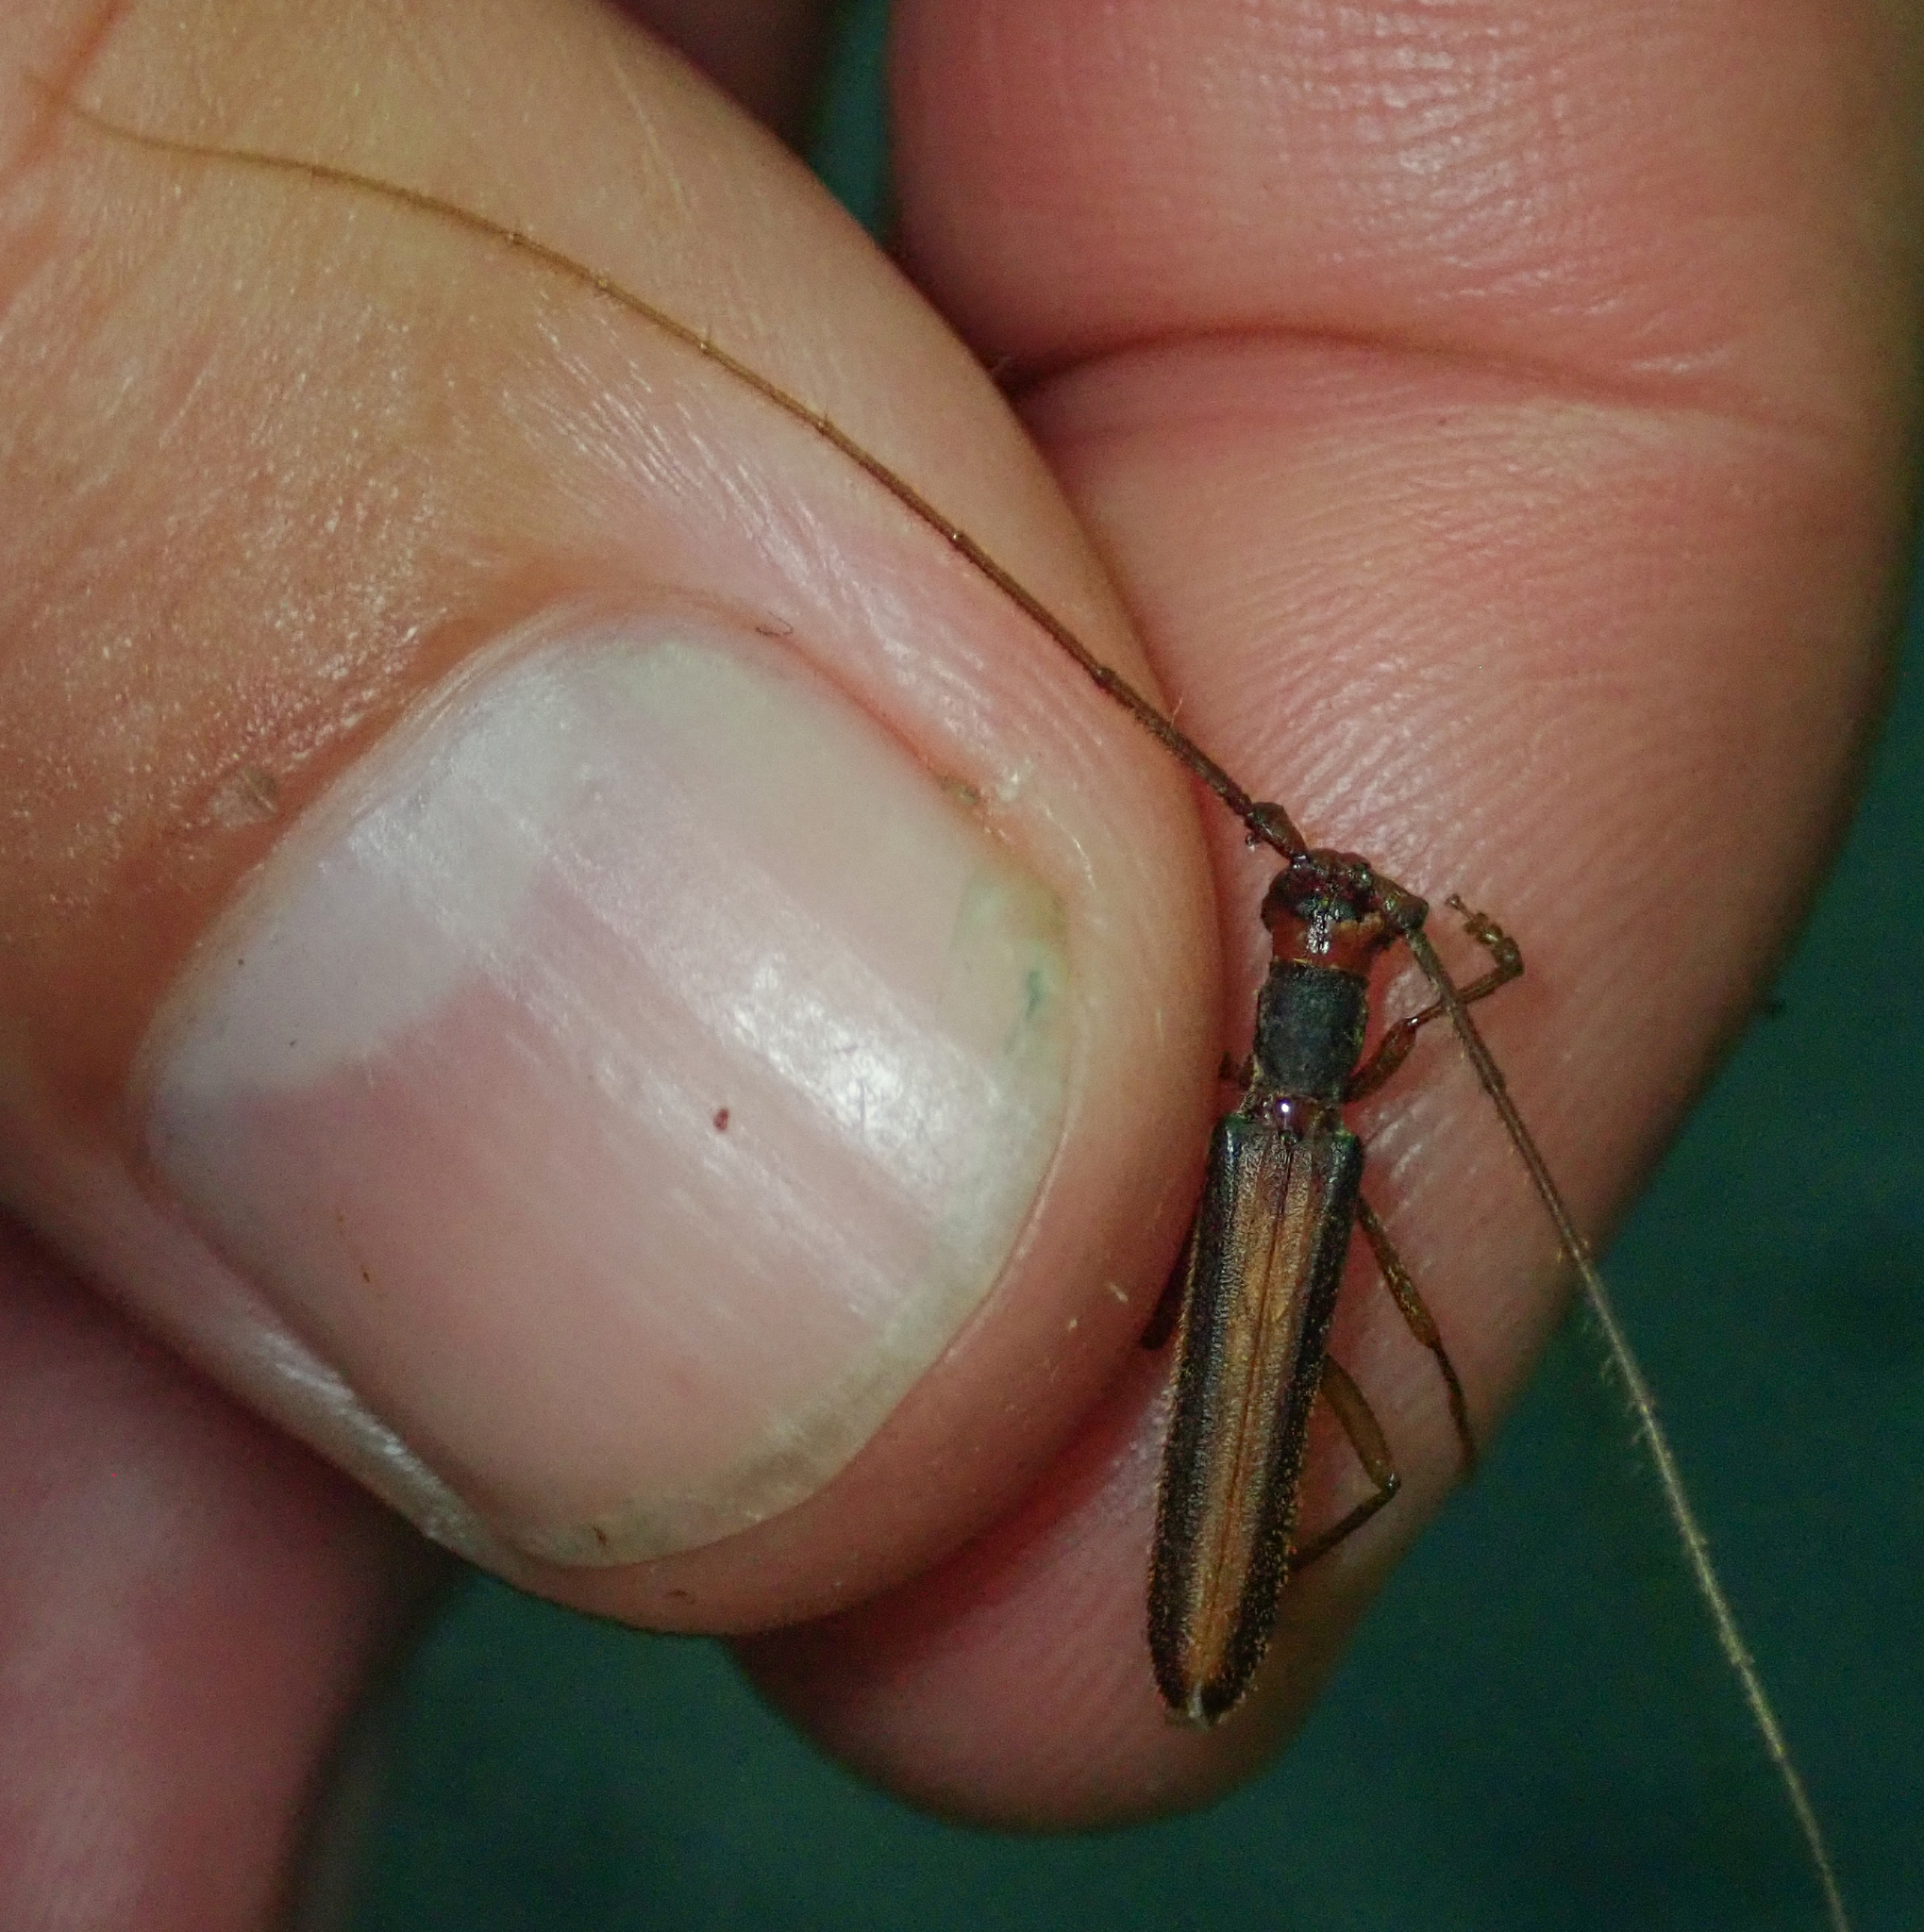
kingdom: Animalia
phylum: Arthropoda
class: Insecta
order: Coleoptera
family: Cerambycidae
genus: Diptychoeme
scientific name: Diptychoeme suturalis
